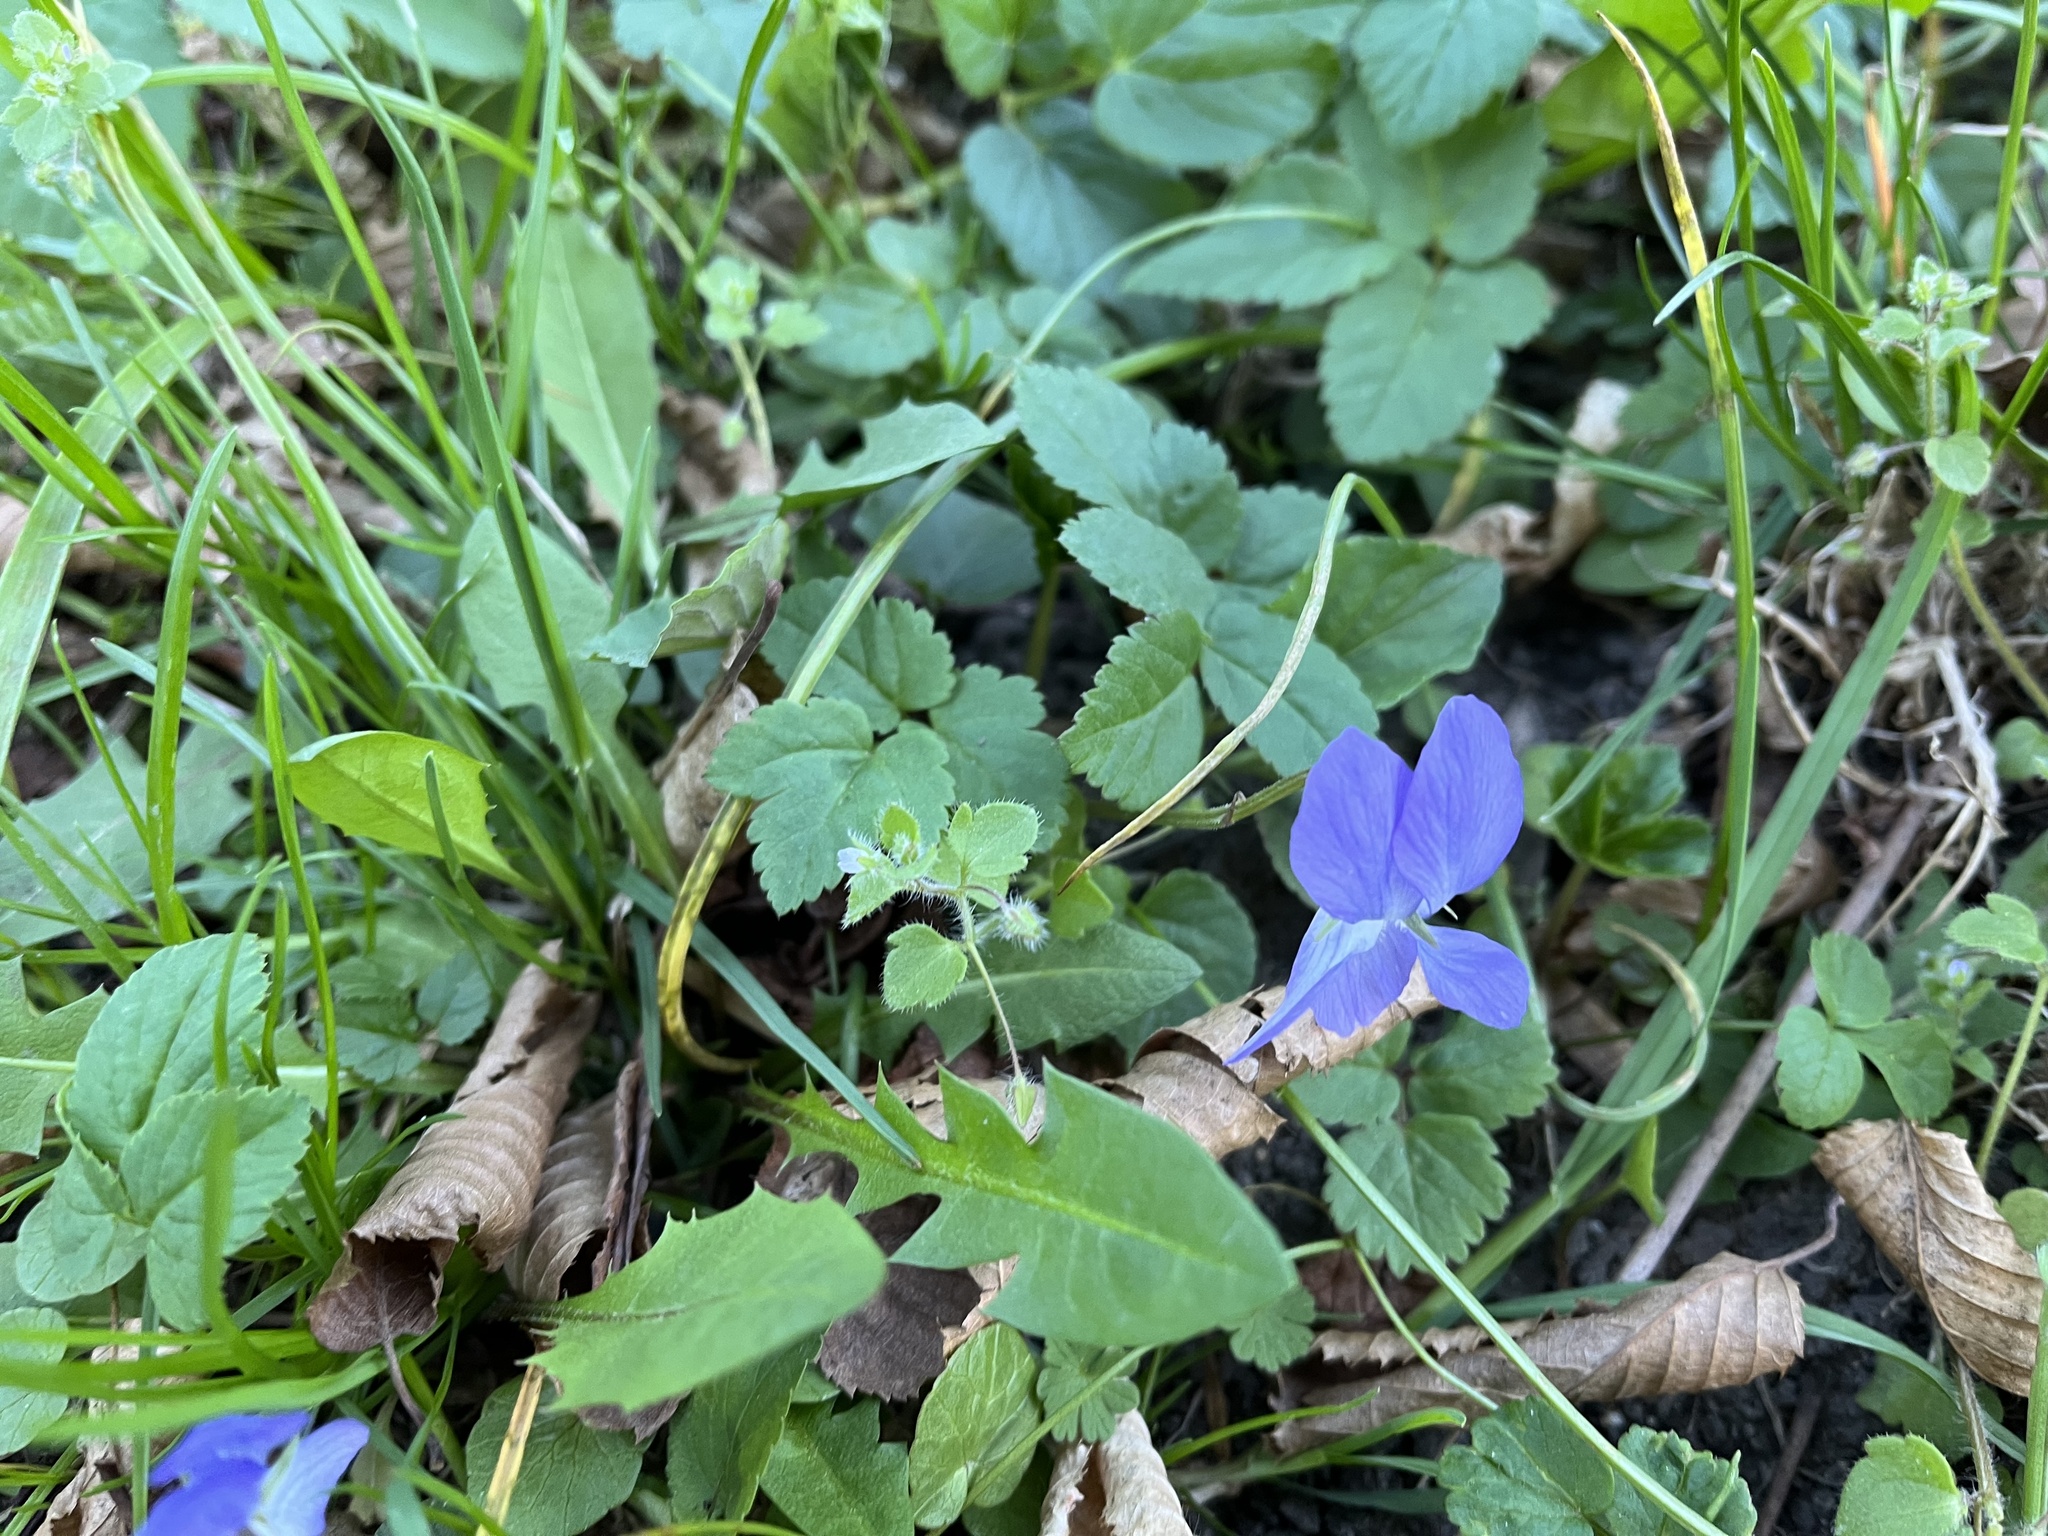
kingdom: Plantae
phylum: Tracheophyta
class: Magnoliopsida
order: Malpighiales
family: Violaceae
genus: Viola
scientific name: Viola riviniana
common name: Common dog-violet
